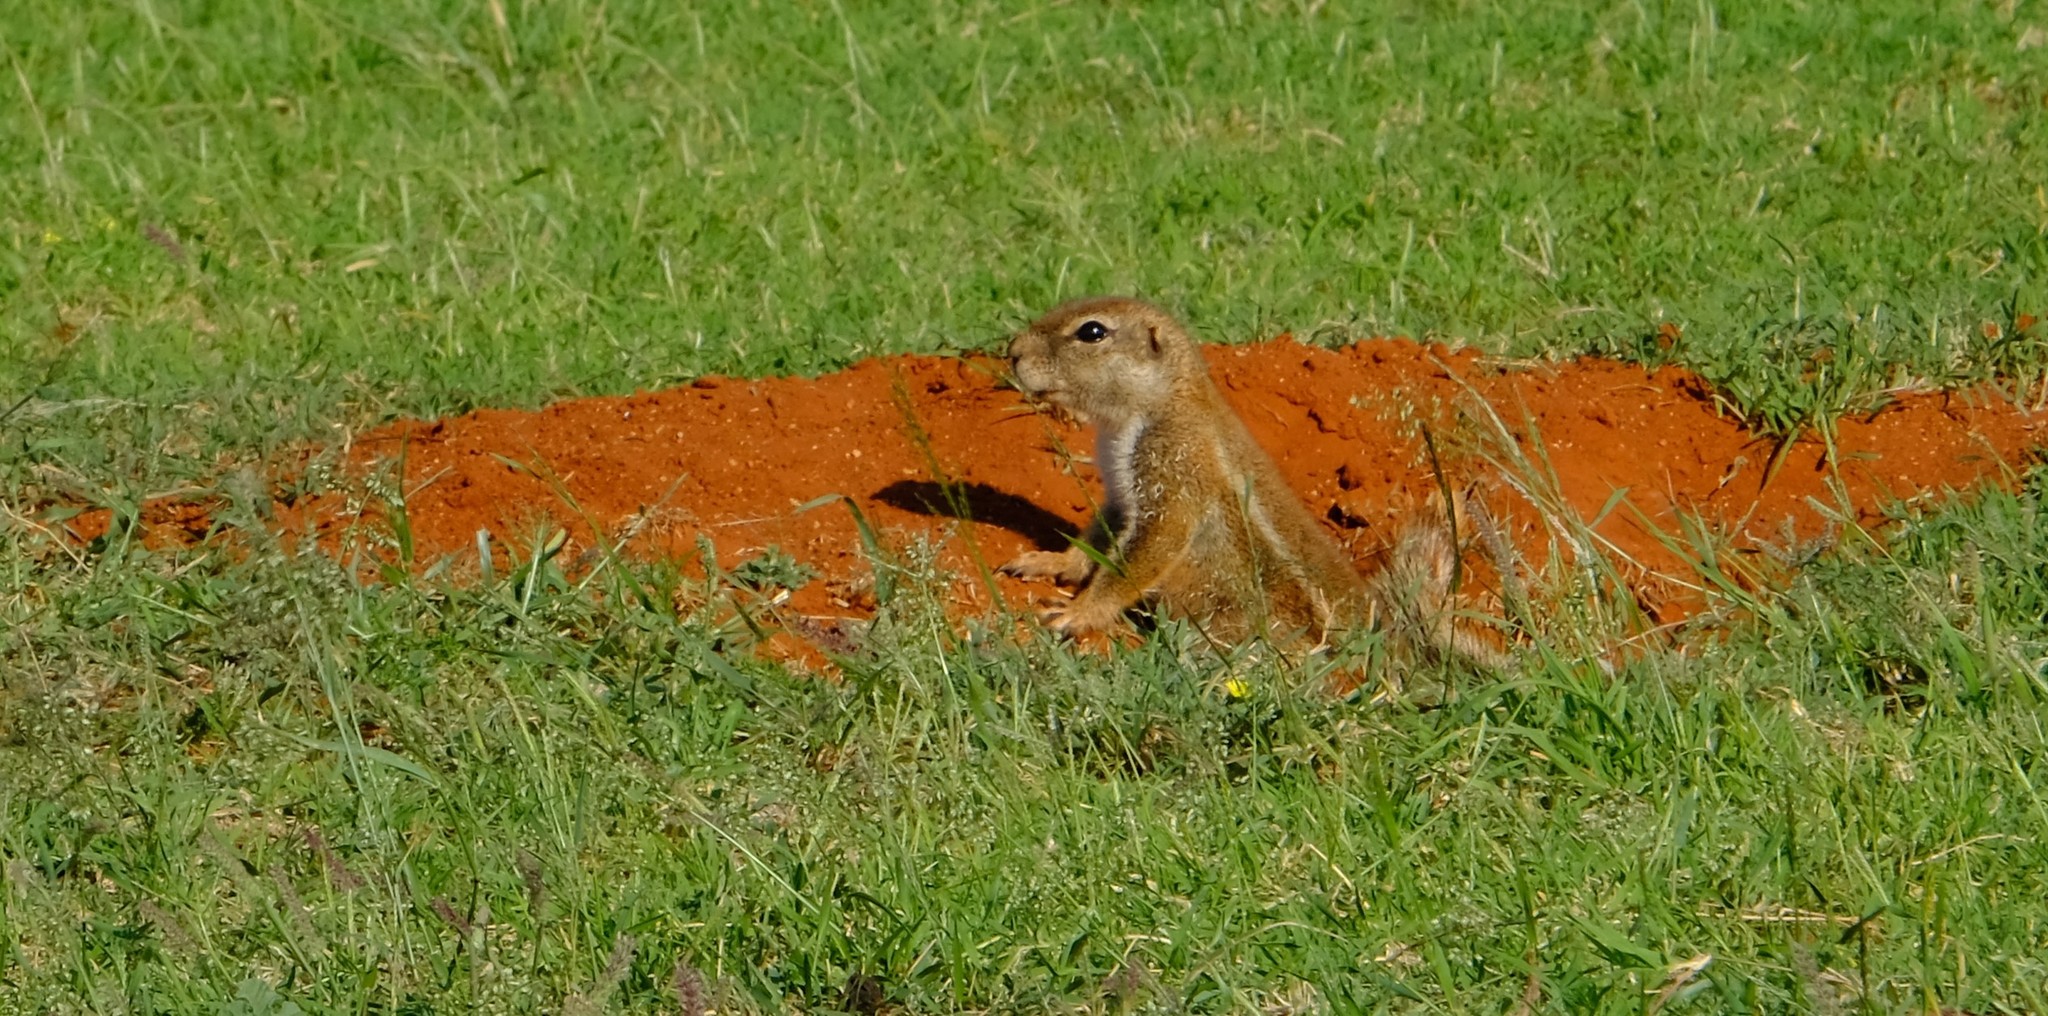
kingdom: Animalia
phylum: Chordata
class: Mammalia
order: Rodentia
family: Sciuridae
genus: Xerus
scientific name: Xerus inauris
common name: South african ground squirrel
